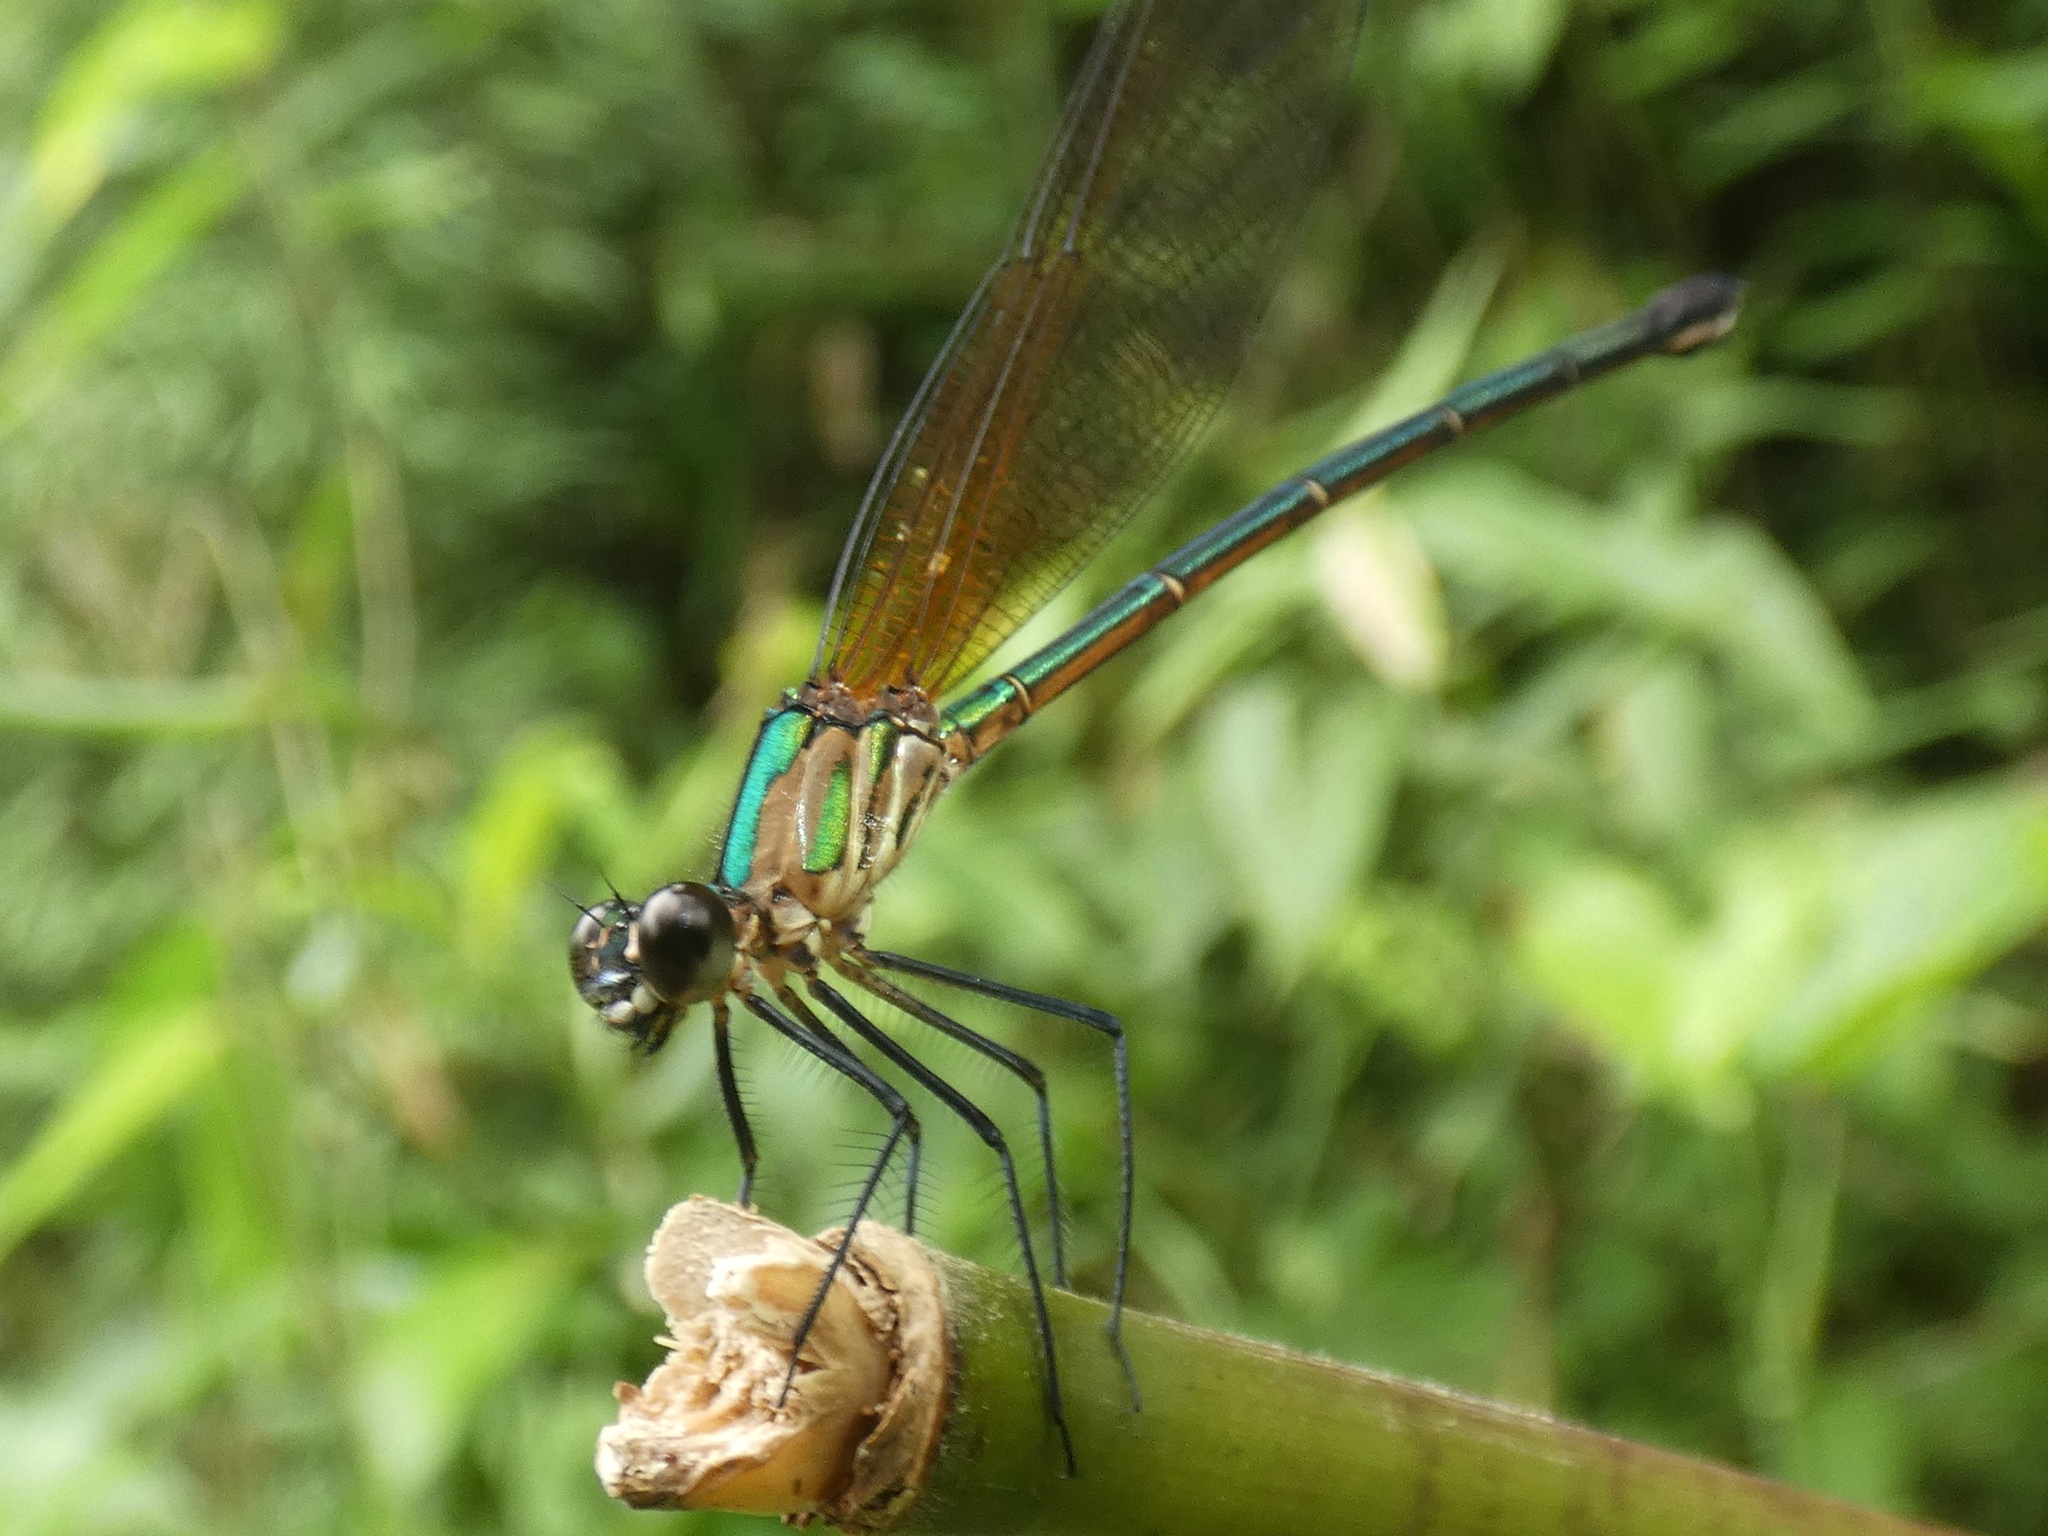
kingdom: Animalia
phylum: Arthropoda
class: Insecta
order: Odonata
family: Calopterygidae
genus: Hetaerina
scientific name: Hetaerina occisa
